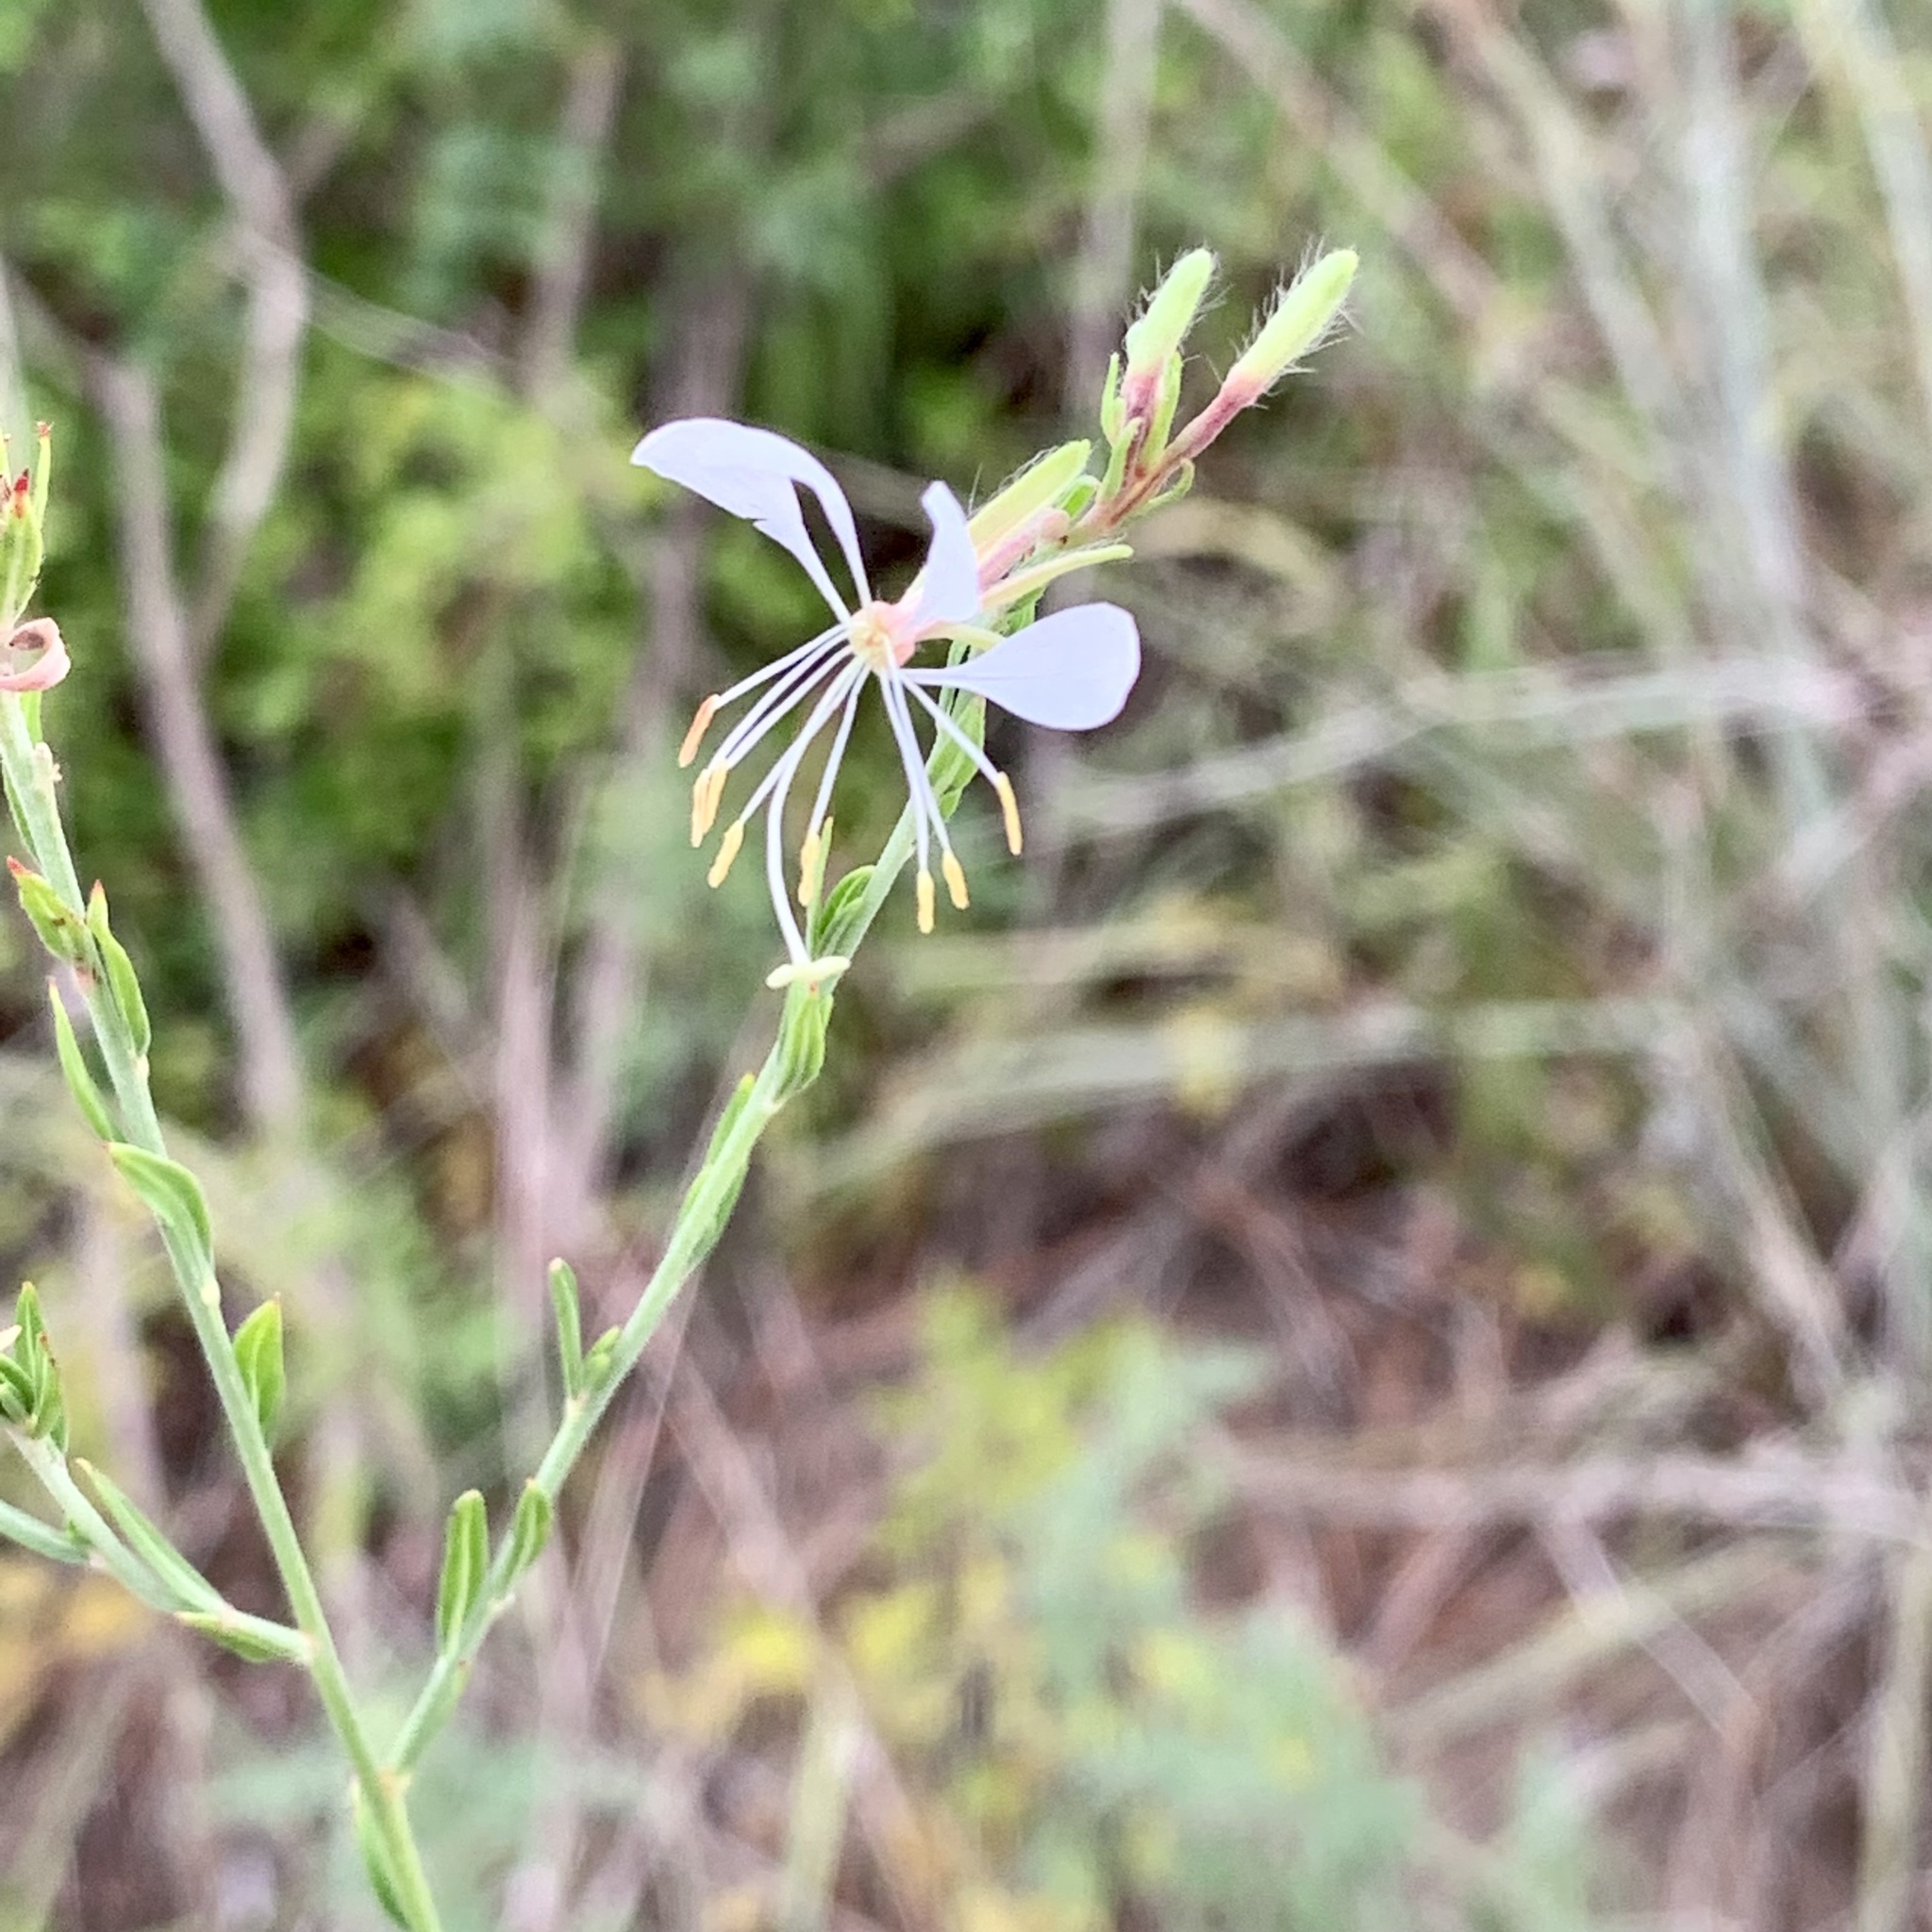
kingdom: Plantae
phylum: Tracheophyta
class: Magnoliopsida
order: Myrtales
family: Onagraceae
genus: Oenothera
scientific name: Oenothera lindheimeri
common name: Lindheimer's beeblossom
